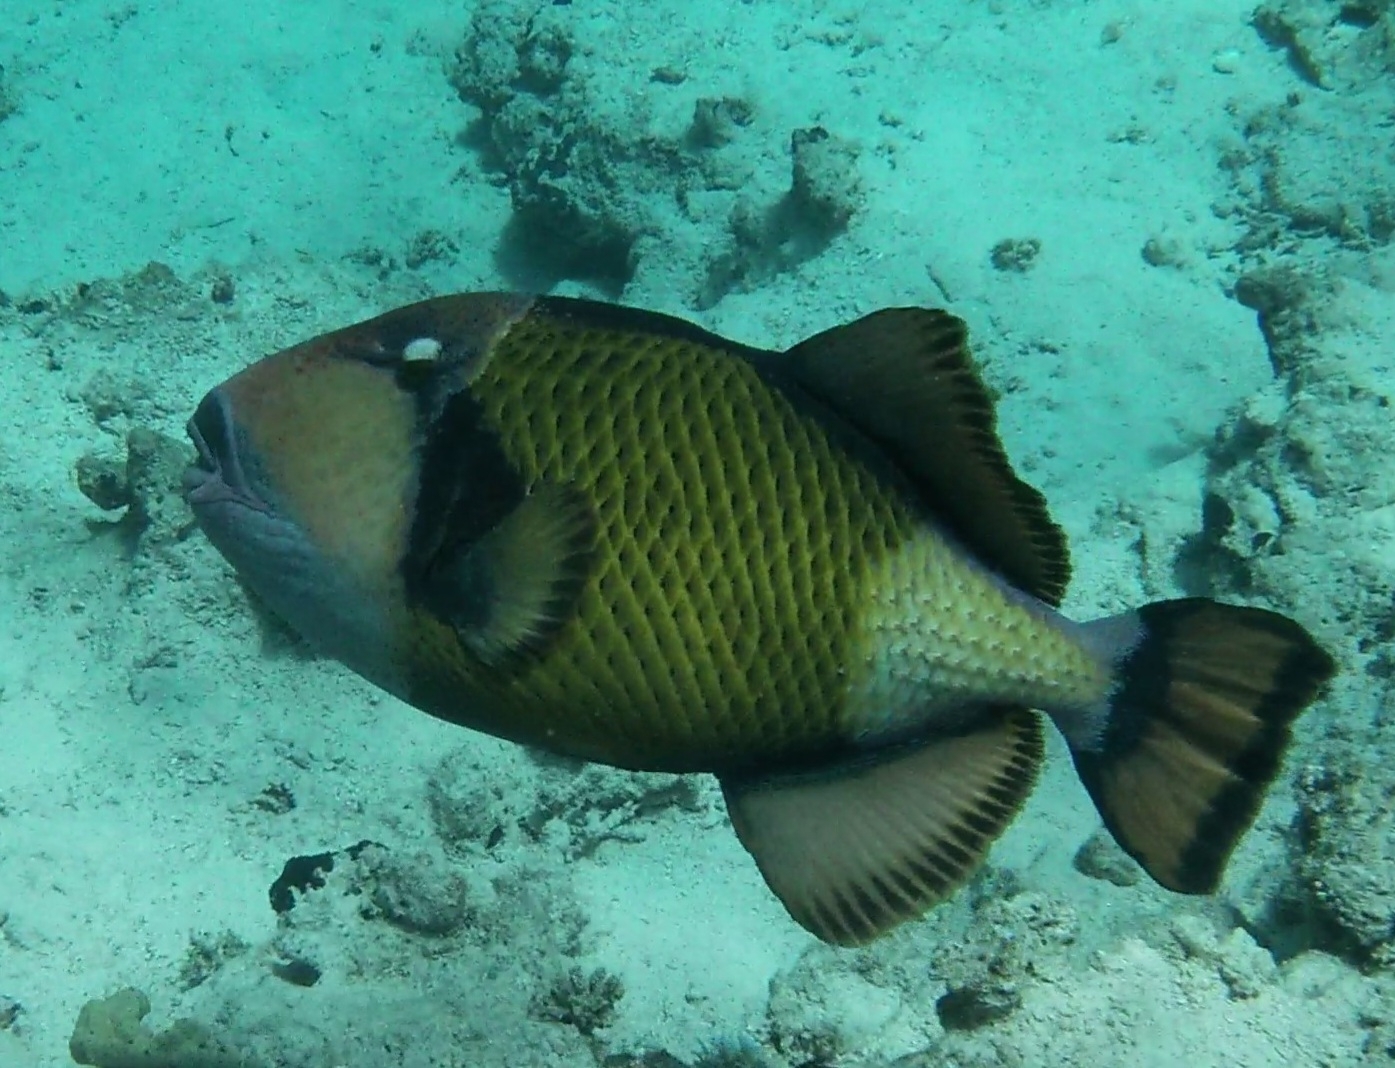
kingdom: Animalia
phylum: Chordata
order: Tetraodontiformes
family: Balistidae
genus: Balistoides
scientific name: Balistoides viridescens
